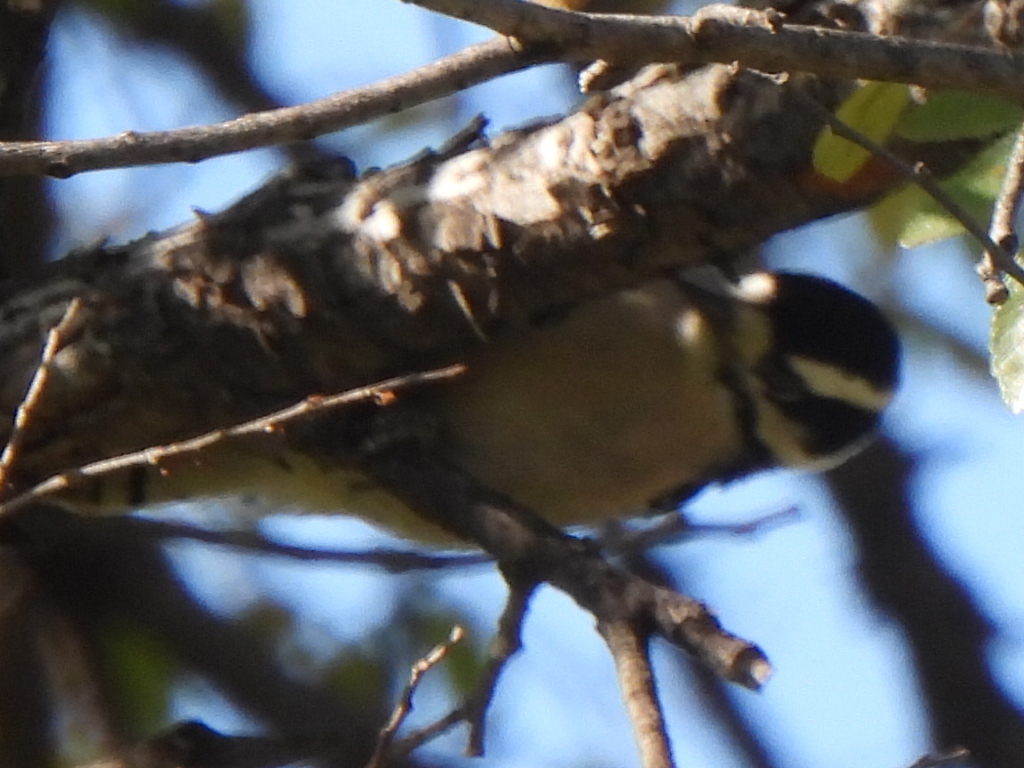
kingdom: Animalia
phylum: Chordata
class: Aves
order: Piciformes
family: Picidae
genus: Dryobates
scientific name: Dryobates pubescens
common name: Downy woodpecker
